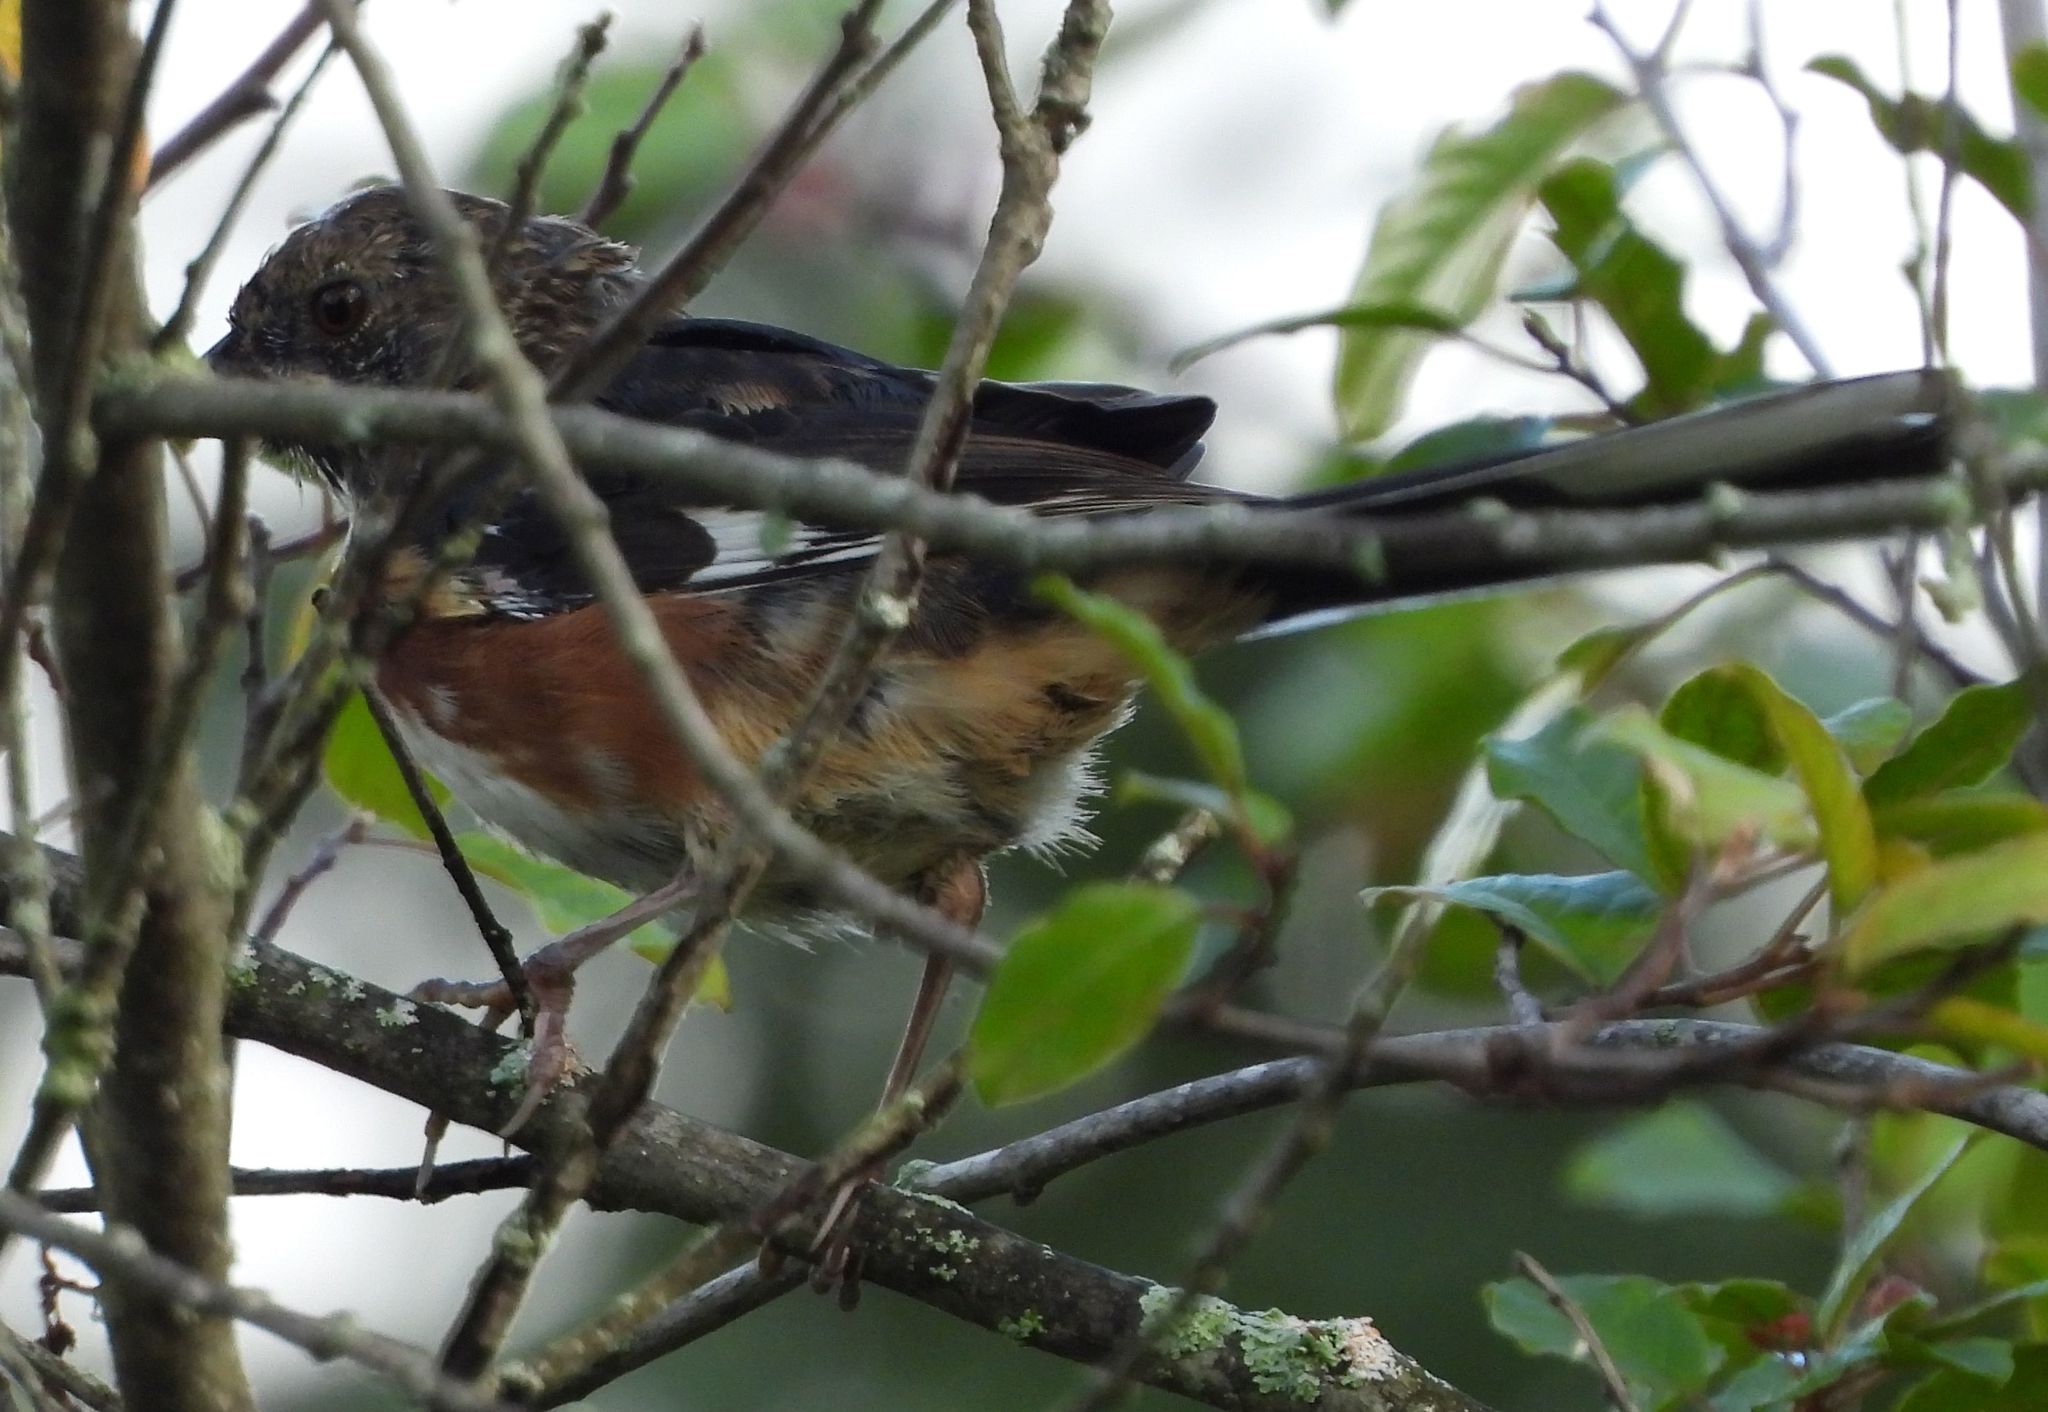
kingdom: Animalia
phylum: Chordata
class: Aves
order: Passeriformes
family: Passerellidae
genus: Pipilo
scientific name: Pipilo erythrophthalmus
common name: Eastern towhee
